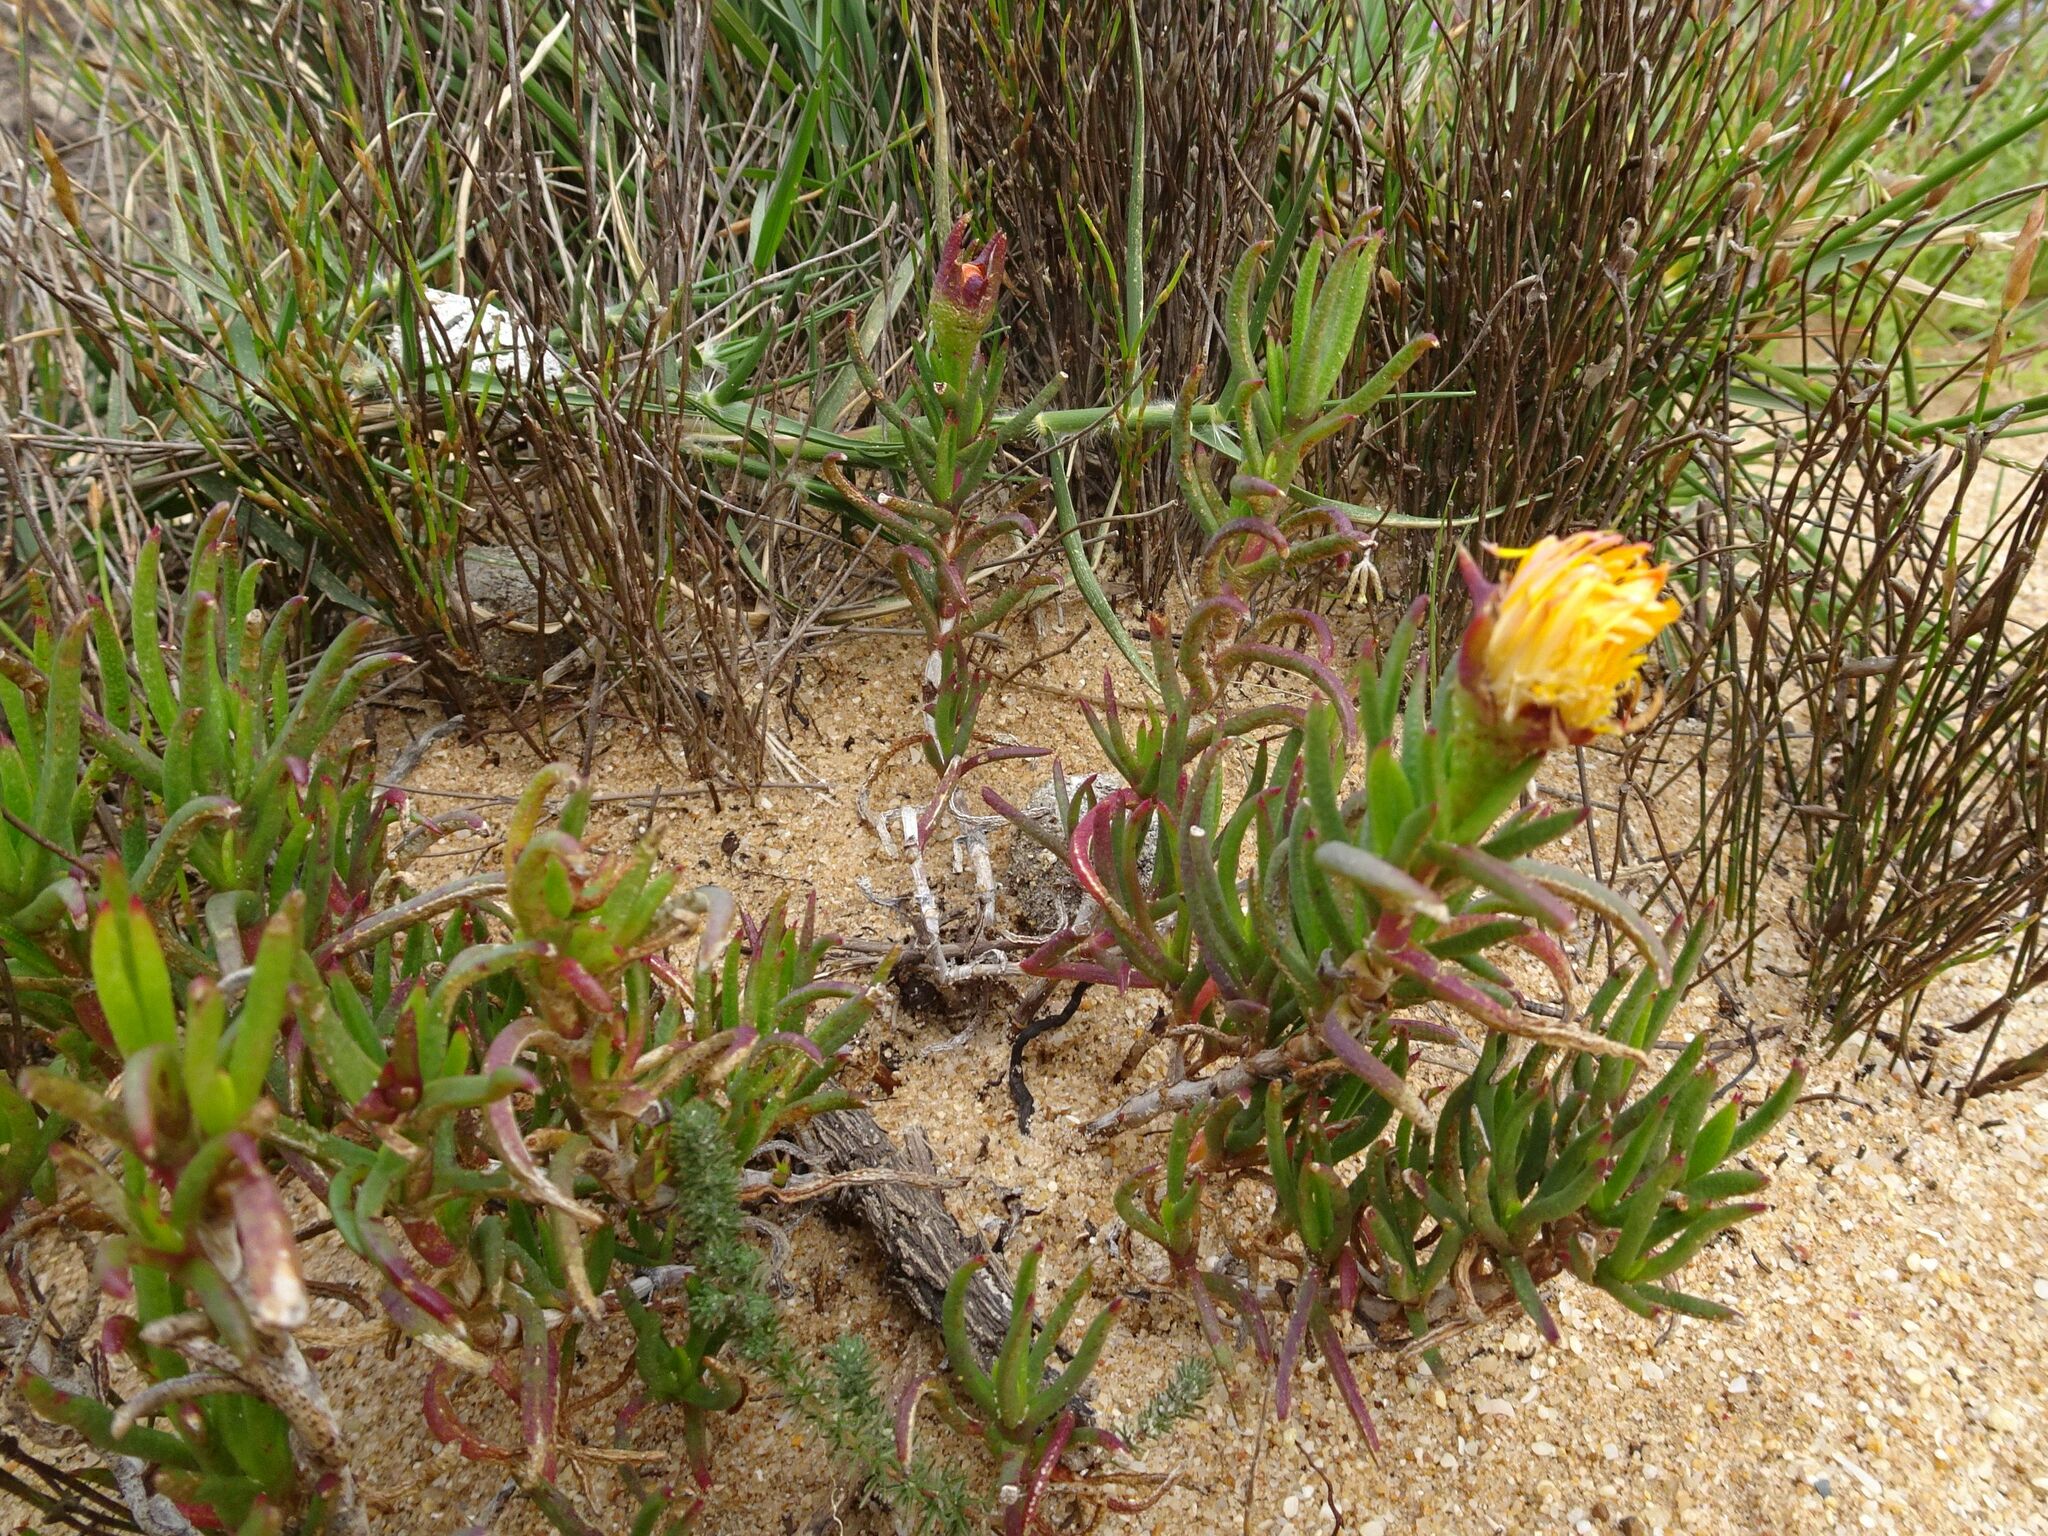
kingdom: Plantae
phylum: Tracheophyta
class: Magnoliopsida
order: Caryophyllales
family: Aizoaceae
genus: Lampranthus
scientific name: Lampranthus bicolor
